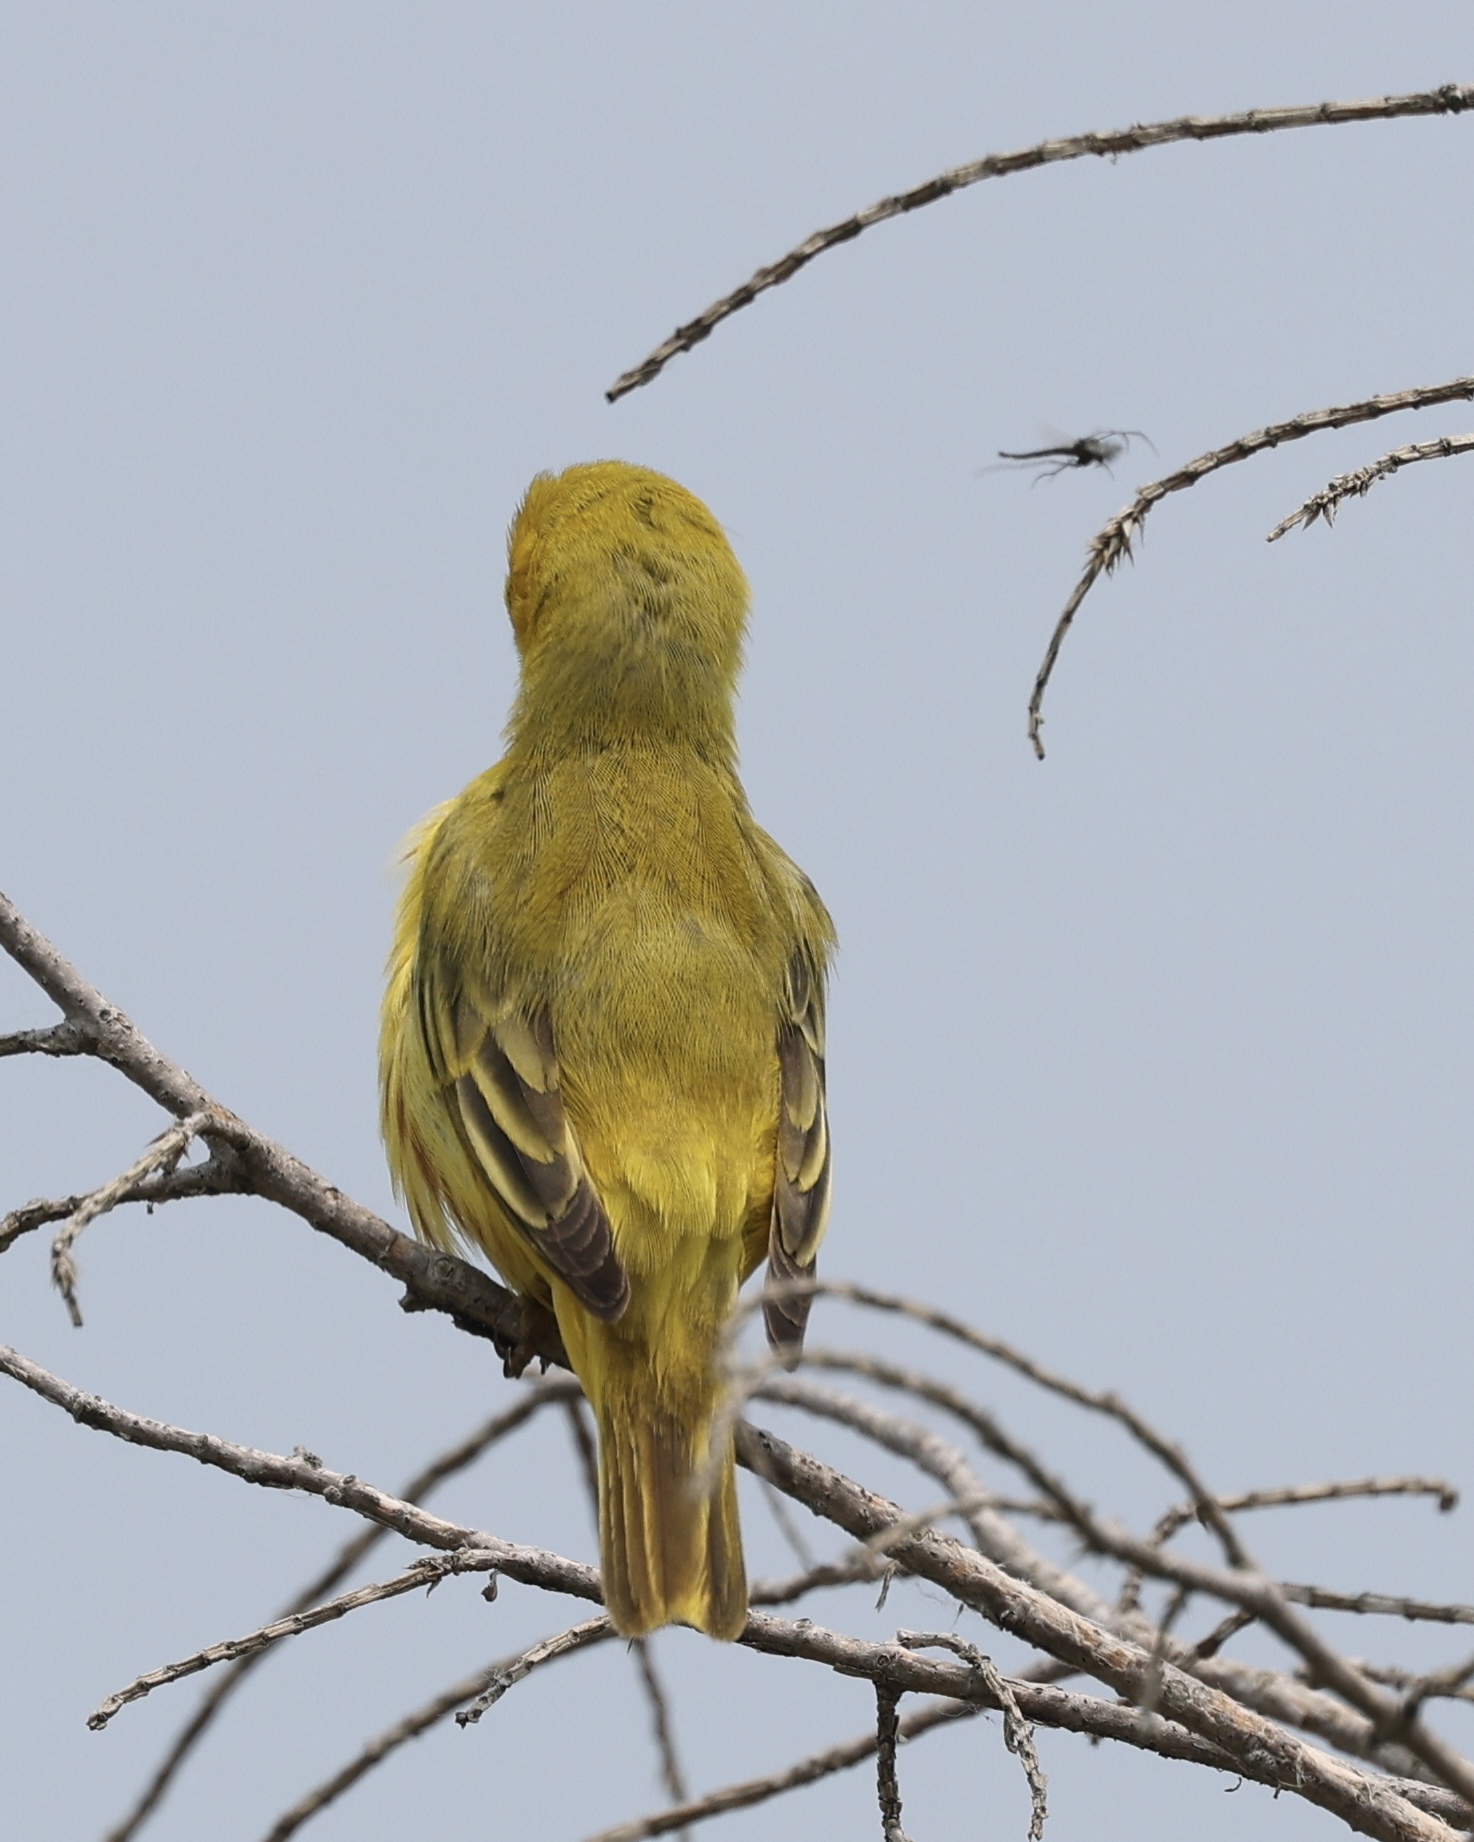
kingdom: Animalia
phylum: Chordata
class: Aves
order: Passeriformes
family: Parulidae
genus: Setophaga
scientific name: Setophaga petechia
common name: Yellow warbler
